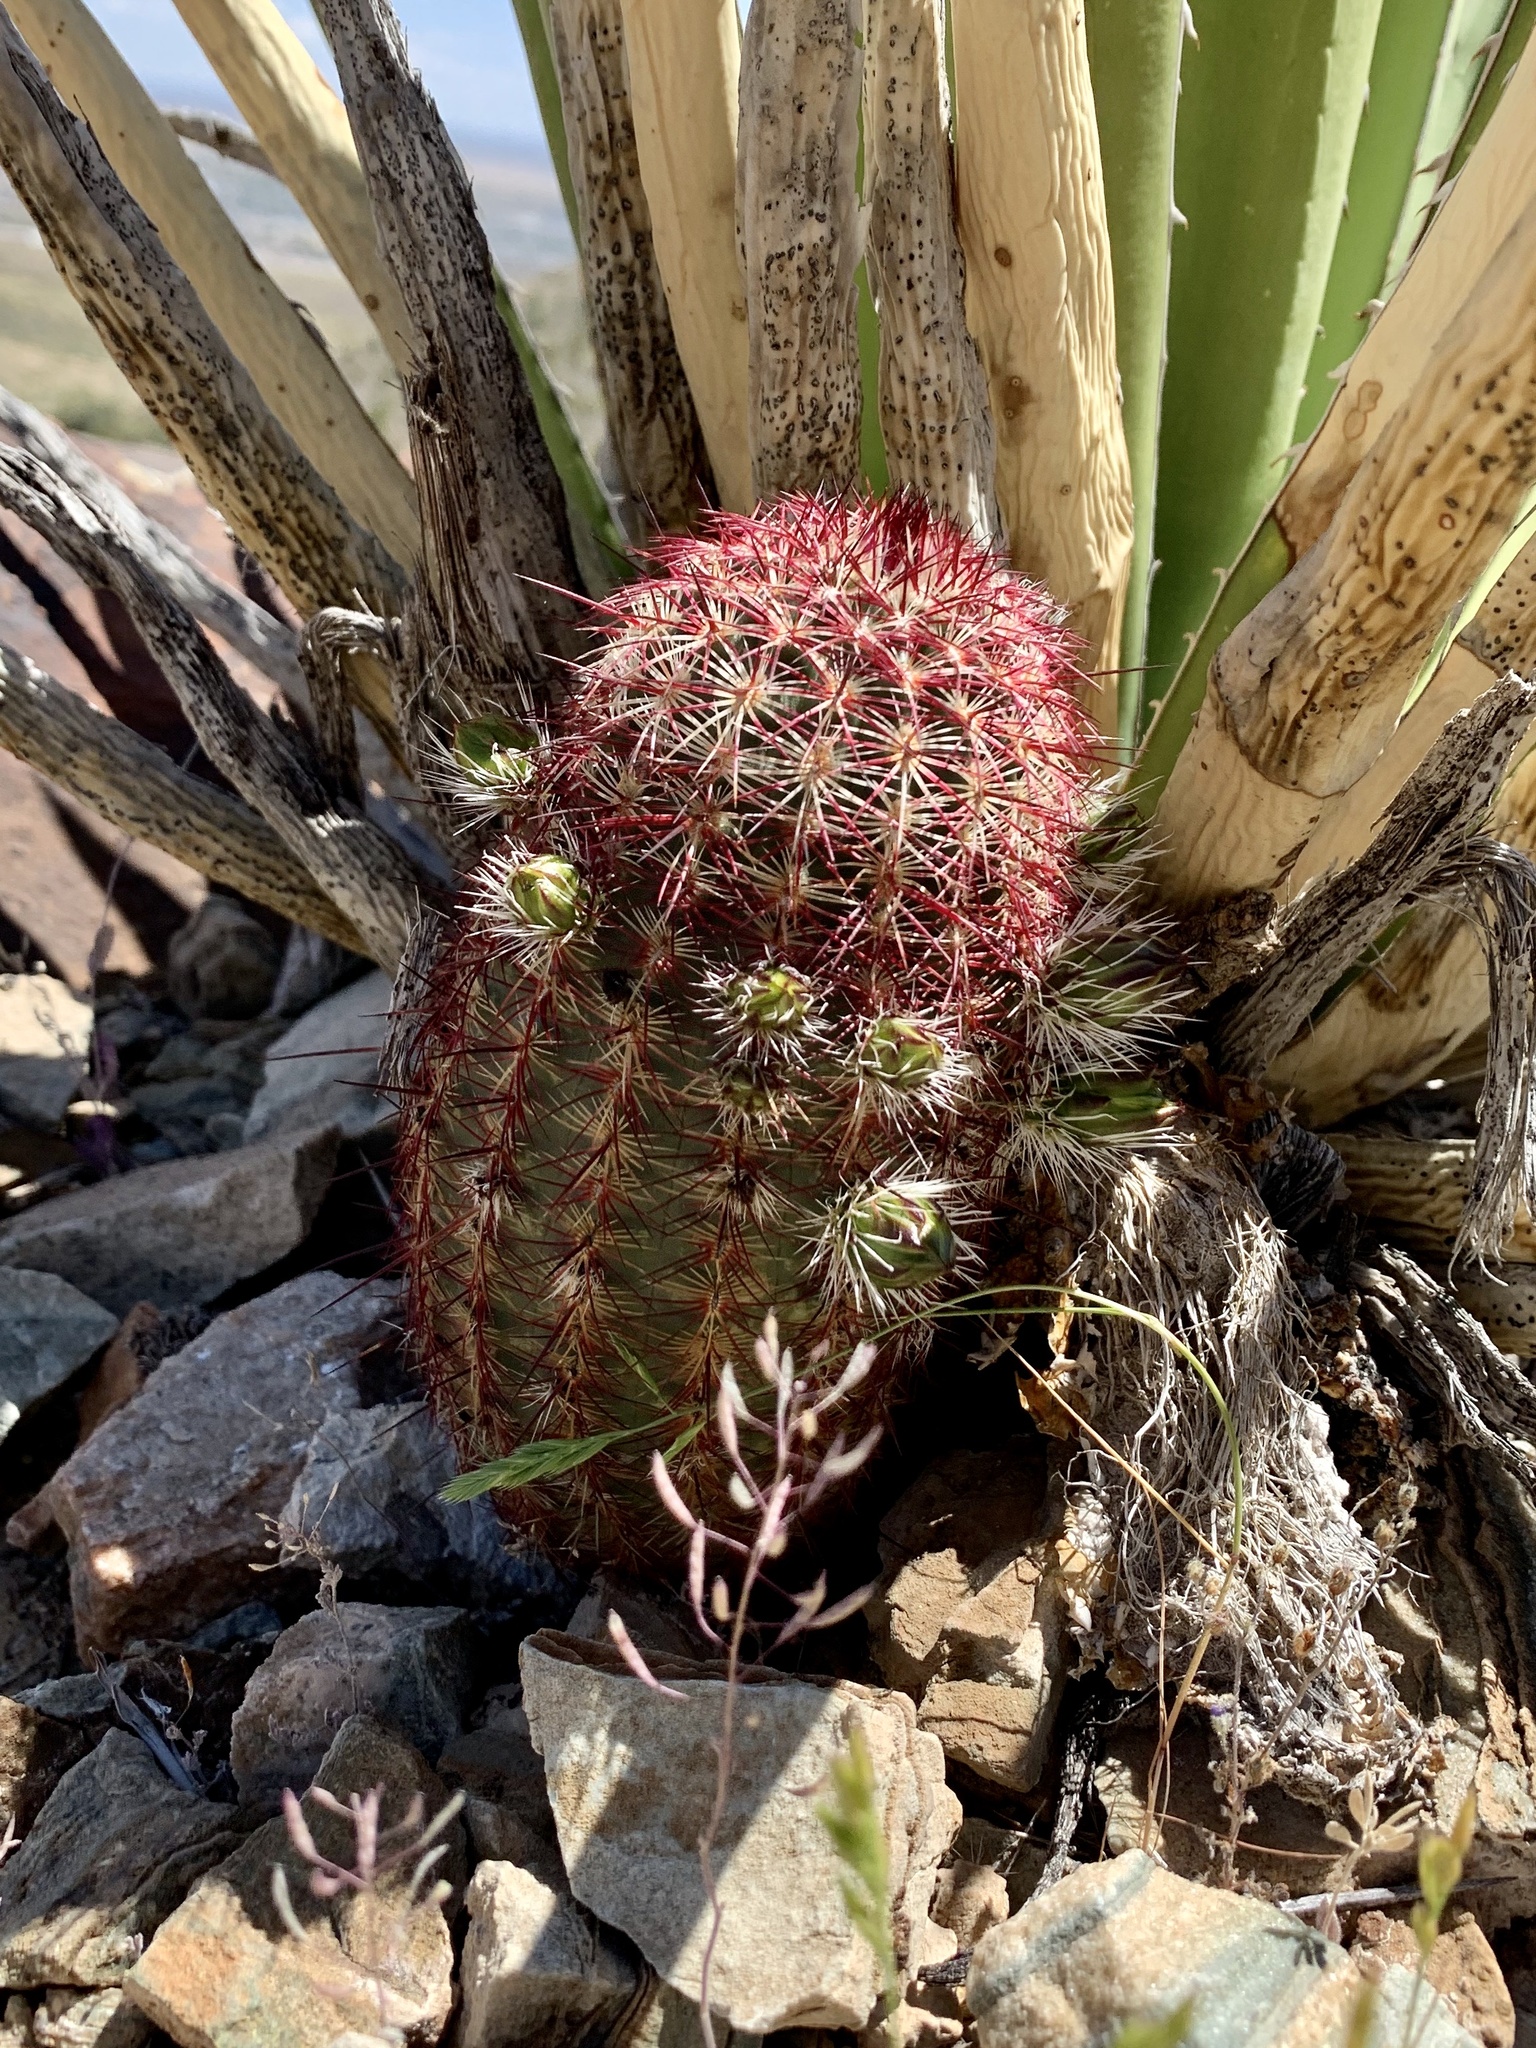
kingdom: Plantae
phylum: Tracheophyta
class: Magnoliopsida
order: Caryophyllales
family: Cactaceae
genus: Echinocereus
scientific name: Echinocereus viridiflorus
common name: Nylon hedgehog cactus
